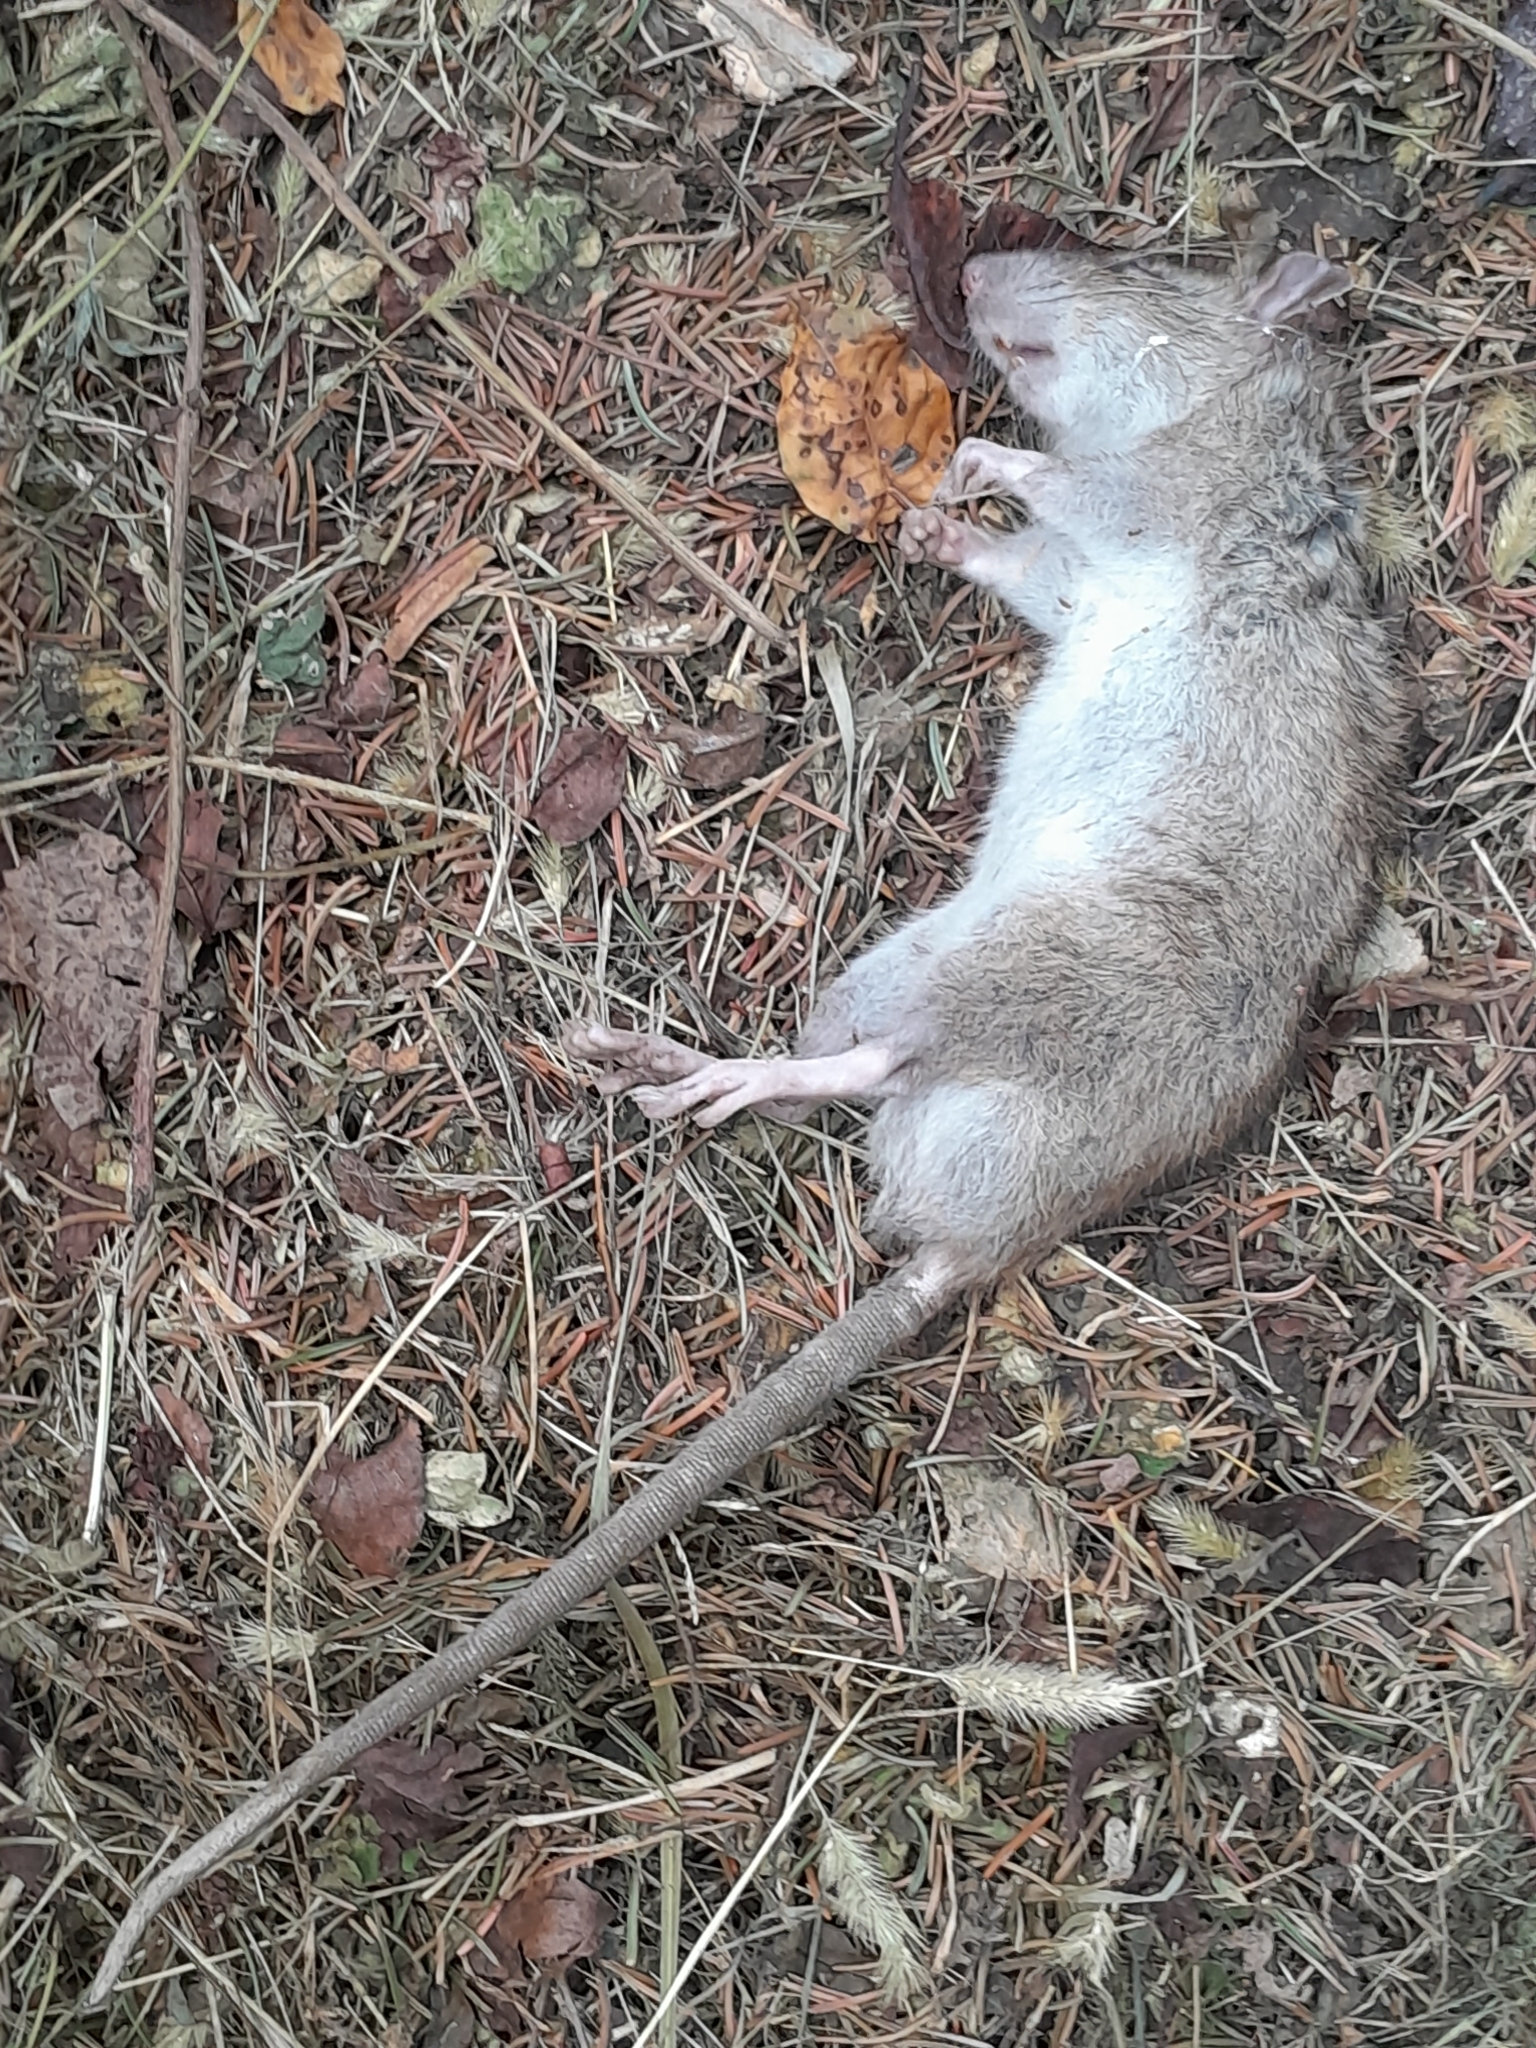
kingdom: Animalia
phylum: Chordata
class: Mammalia
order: Rodentia
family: Muridae
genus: Rattus
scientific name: Rattus norvegicus
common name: Brown rat
